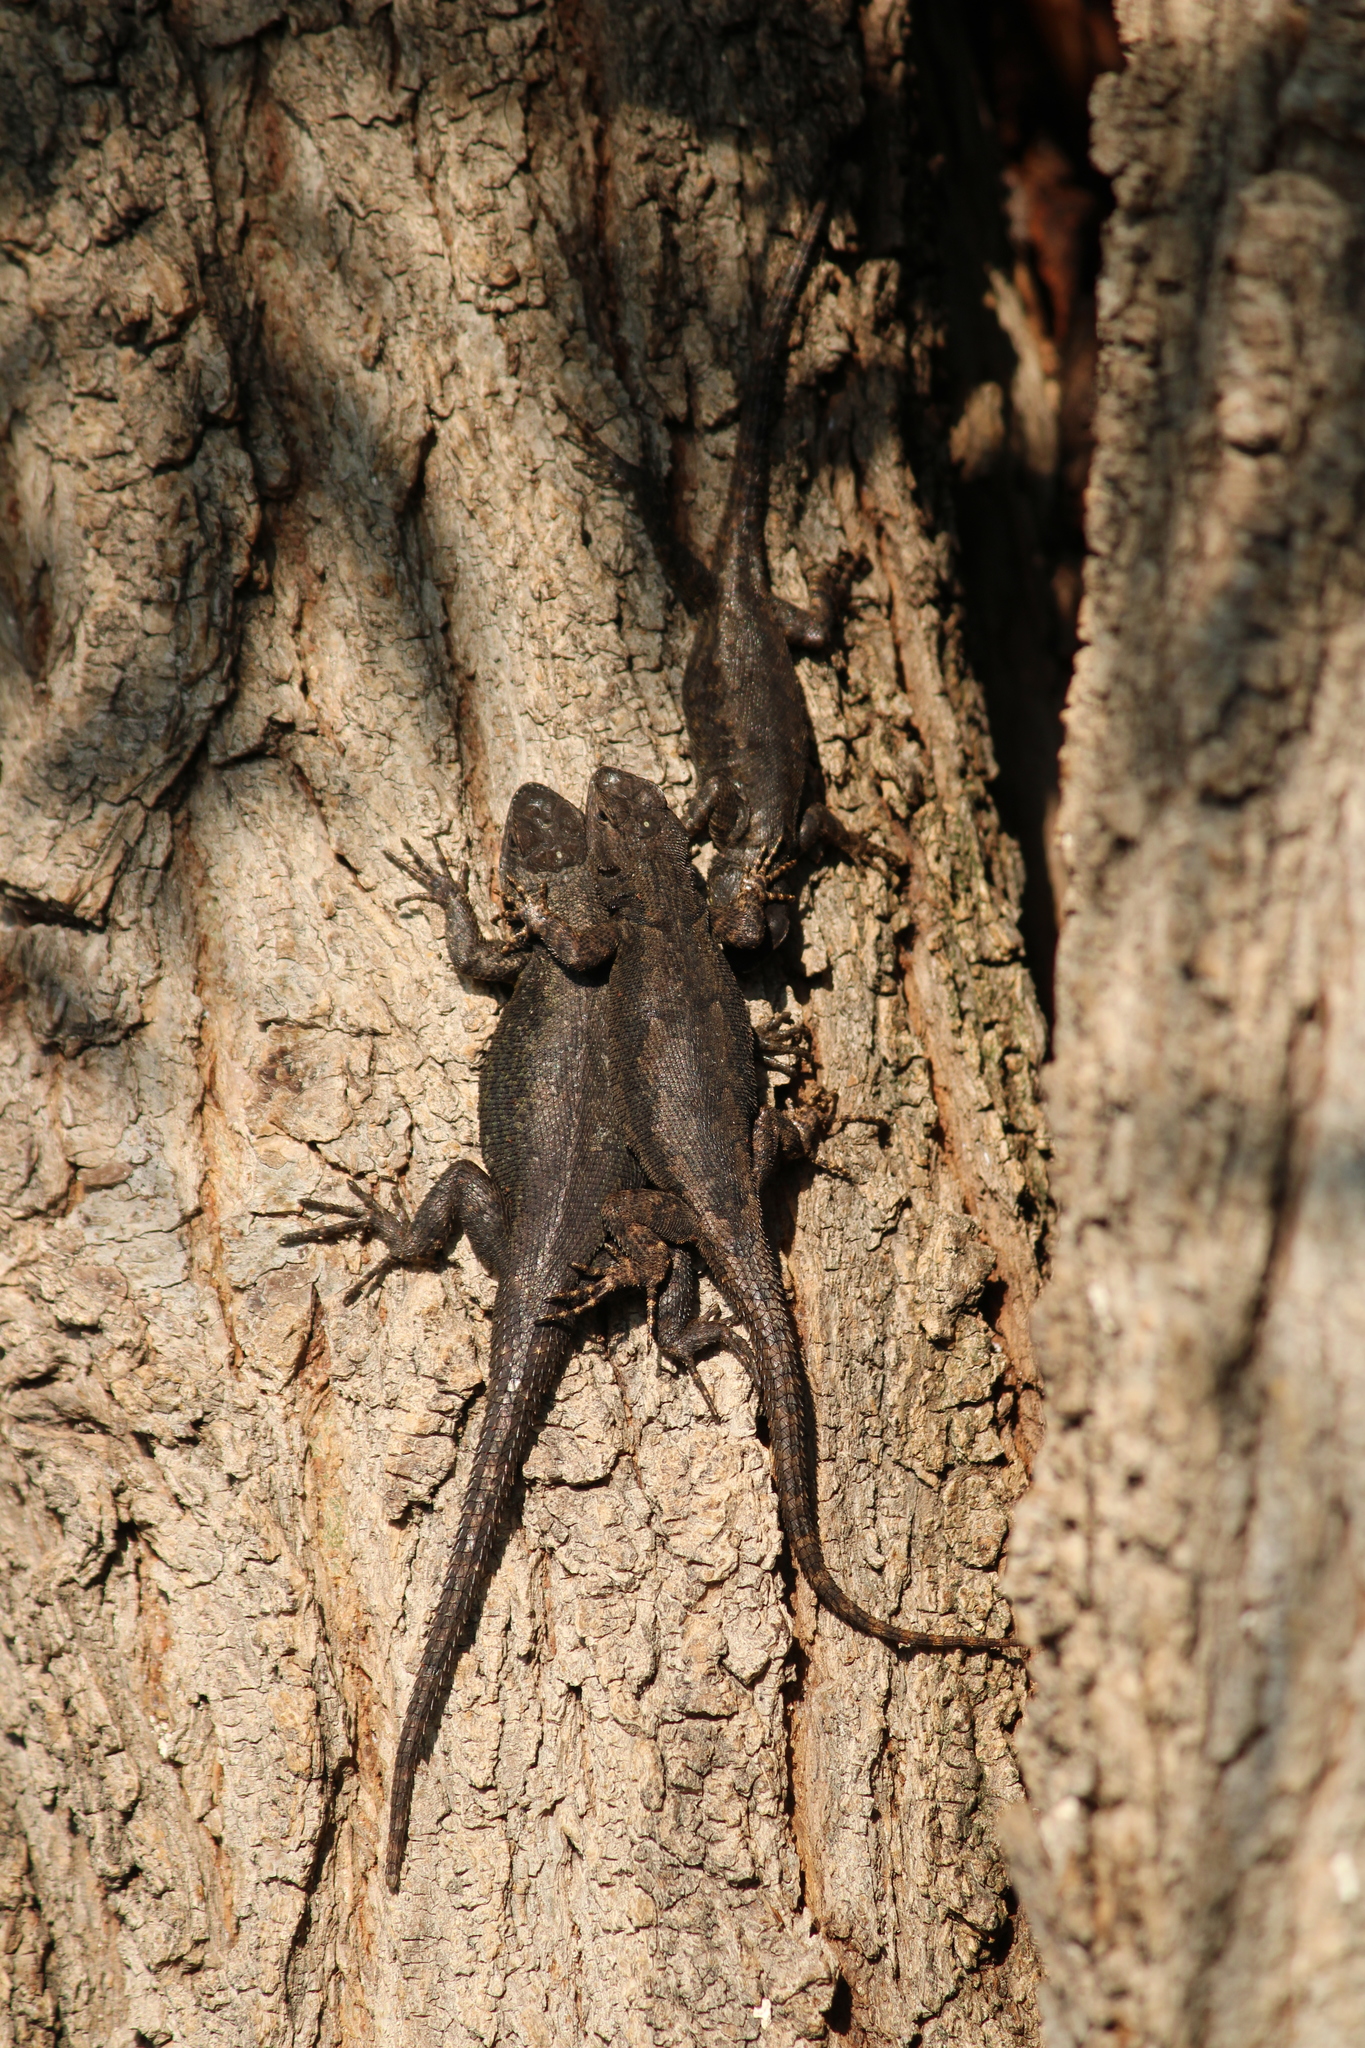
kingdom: Animalia
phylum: Chordata
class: Squamata
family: Phrynosomatidae
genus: Sceloporus
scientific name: Sceloporus grammicus
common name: Mesquite lizard
